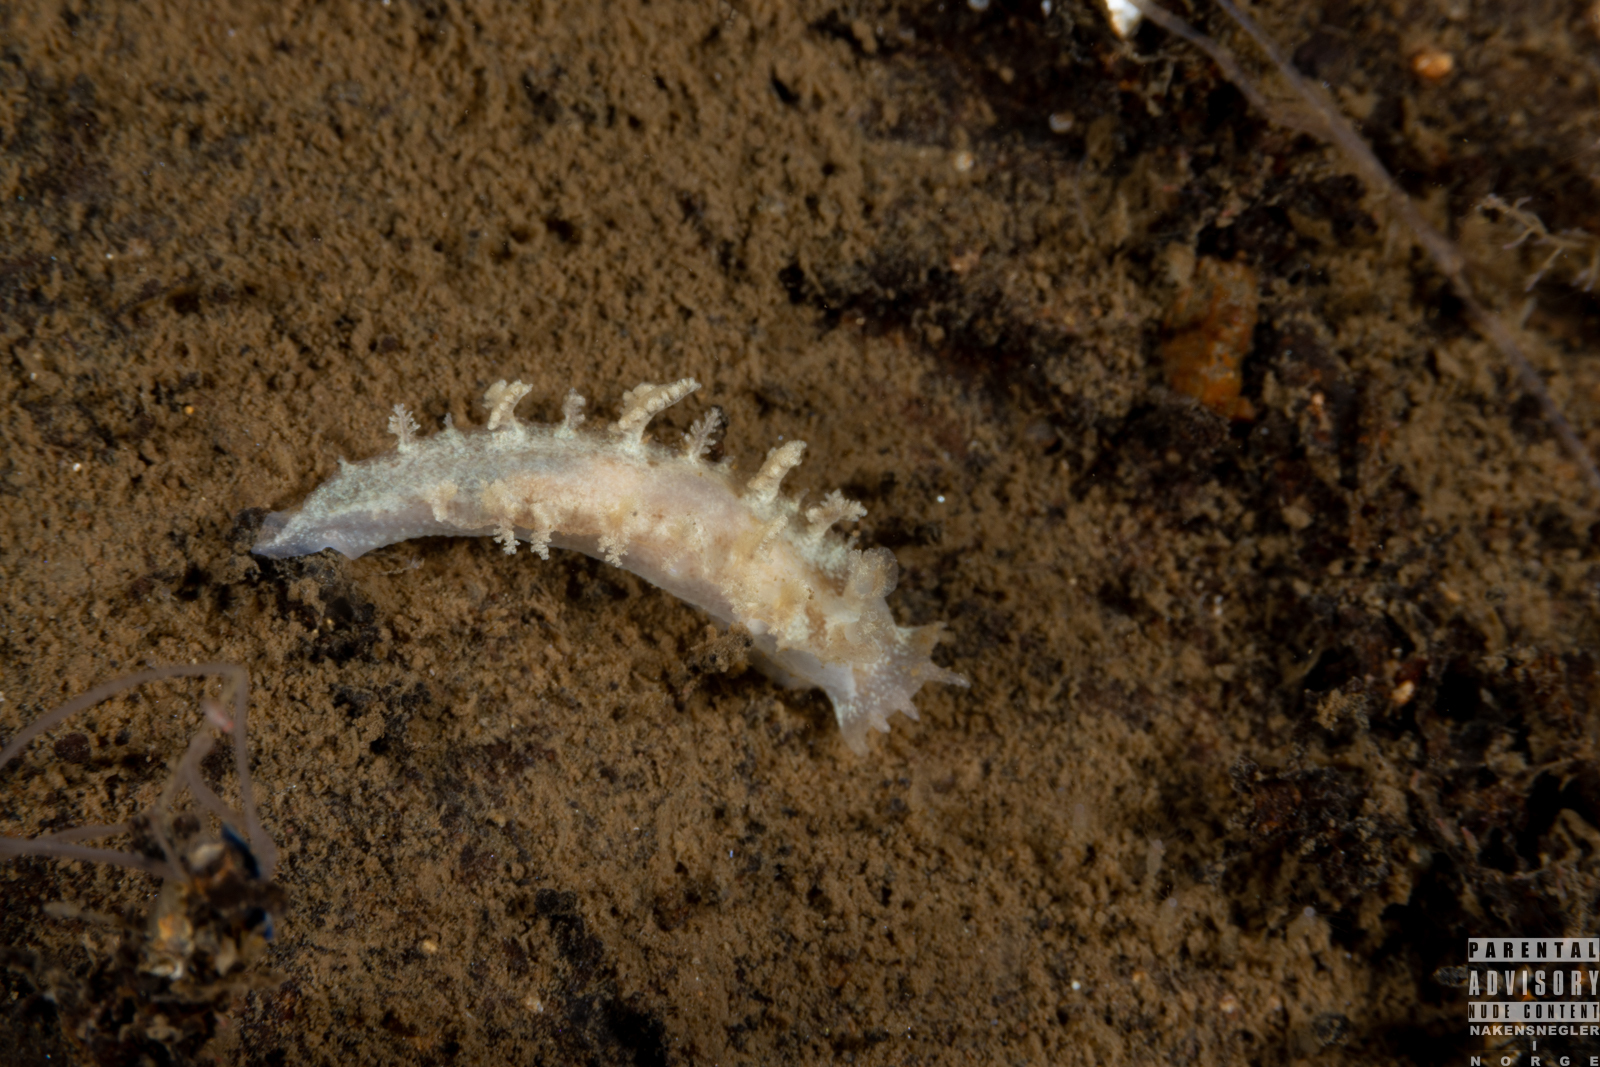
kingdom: Animalia
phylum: Mollusca
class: Gastropoda
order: Nudibranchia
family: Tritoniidae
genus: Duvaucelia
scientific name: Duvaucelia plebeia
